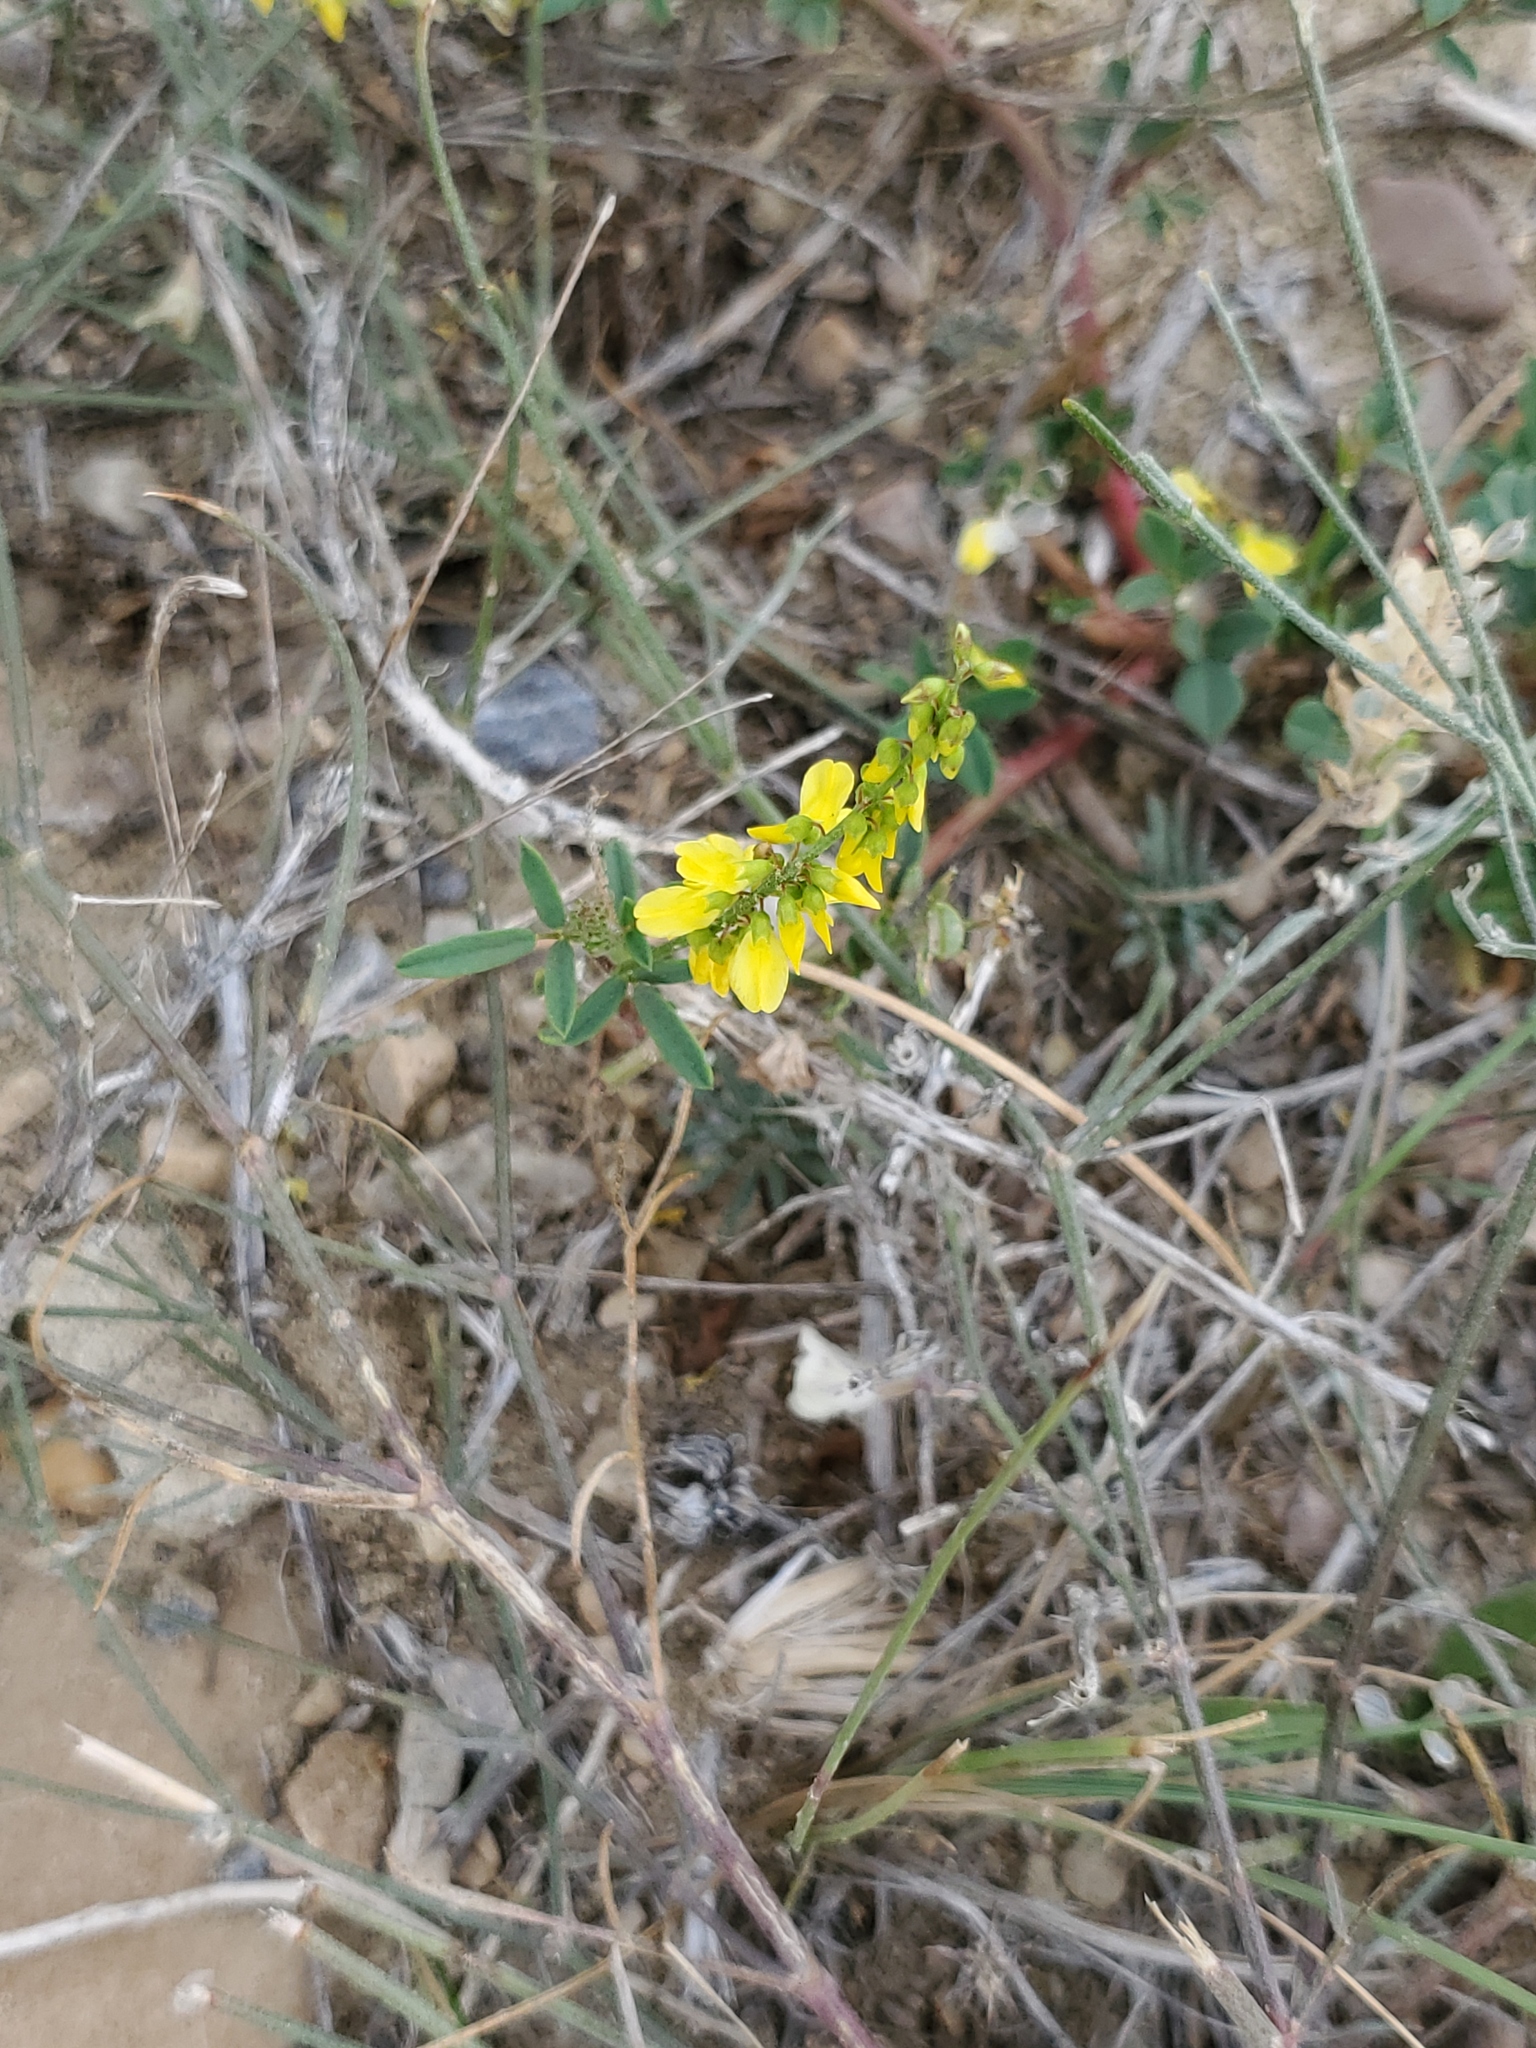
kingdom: Plantae
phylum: Tracheophyta
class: Magnoliopsida
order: Fabales
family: Fabaceae
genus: Melilotus
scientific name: Melilotus officinalis
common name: Sweetclover
